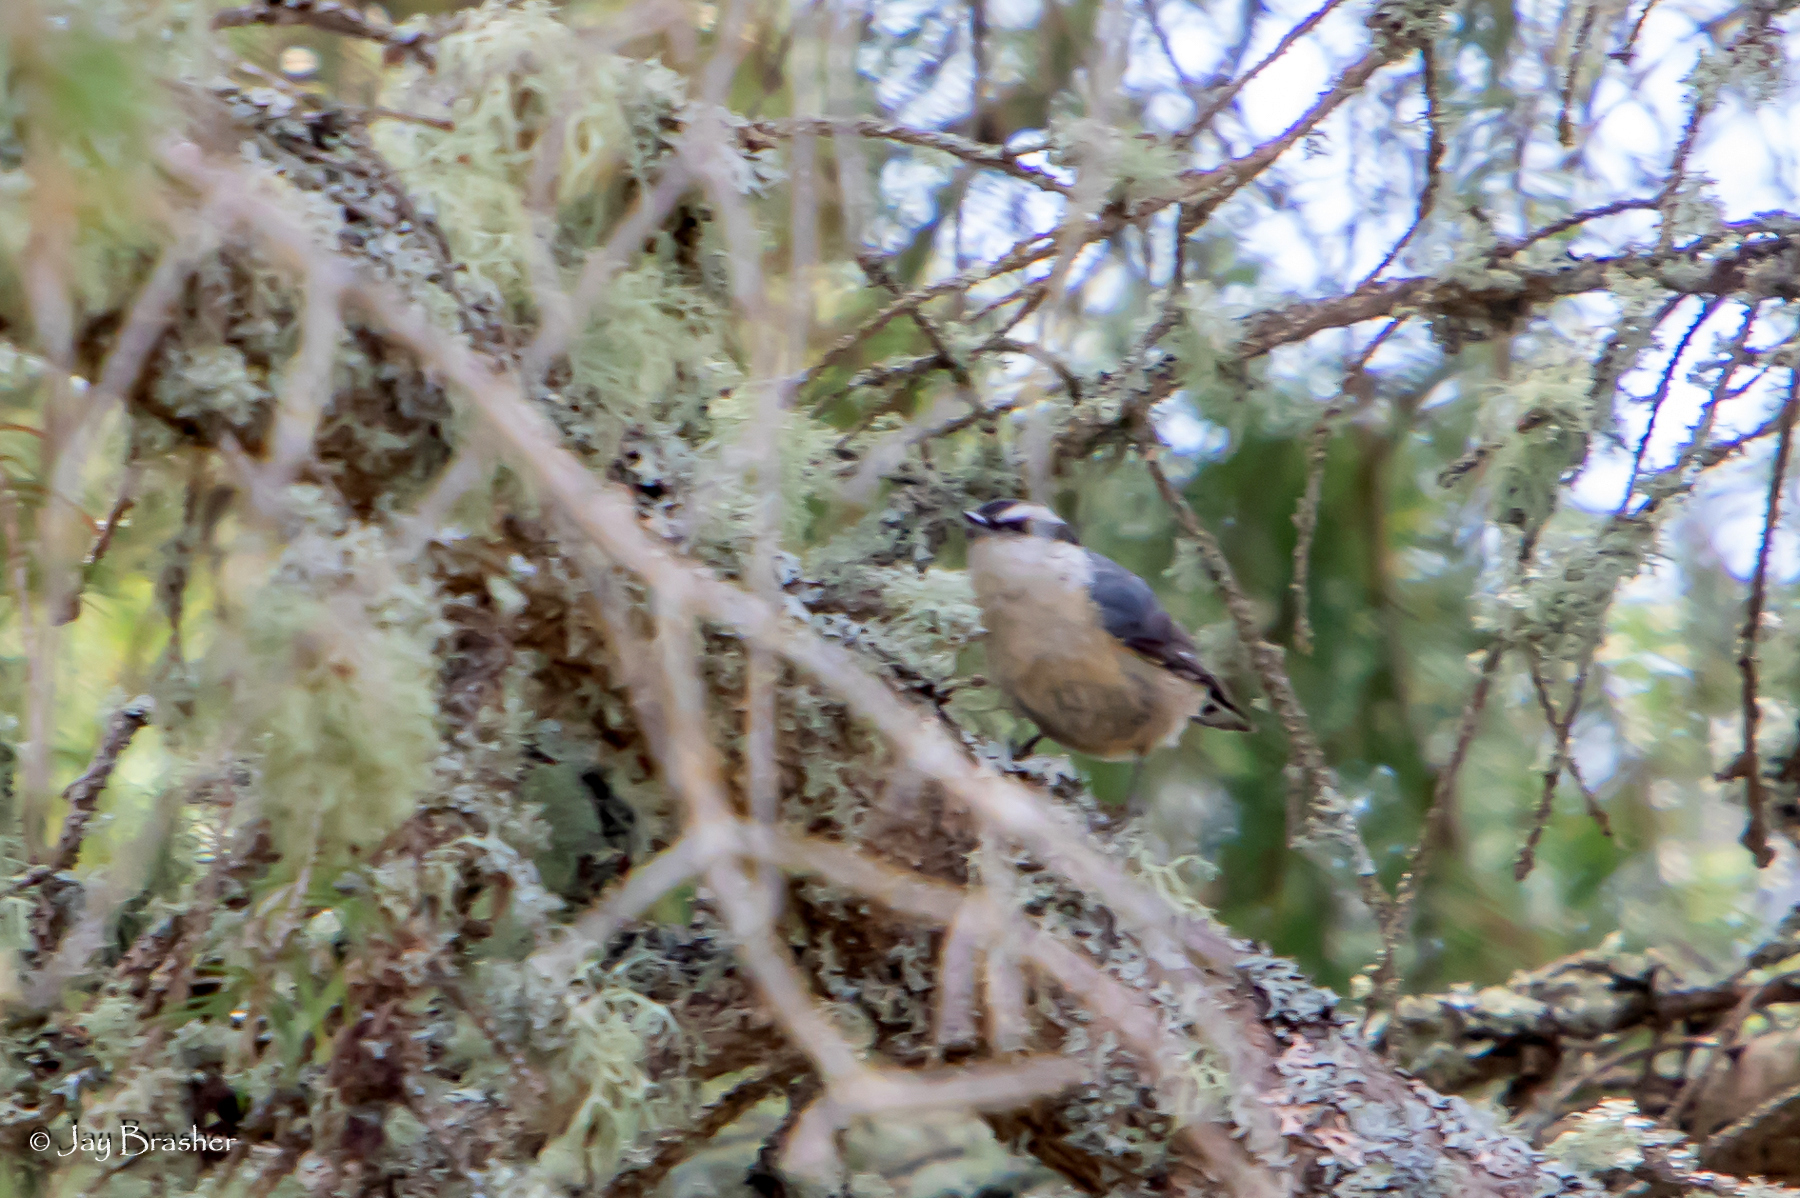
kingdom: Animalia
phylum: Chordata
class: Aves
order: Passeriformes
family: Sittidae
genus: Sitta
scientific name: Sitta canadensis
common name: Red-breasted nuthatch
